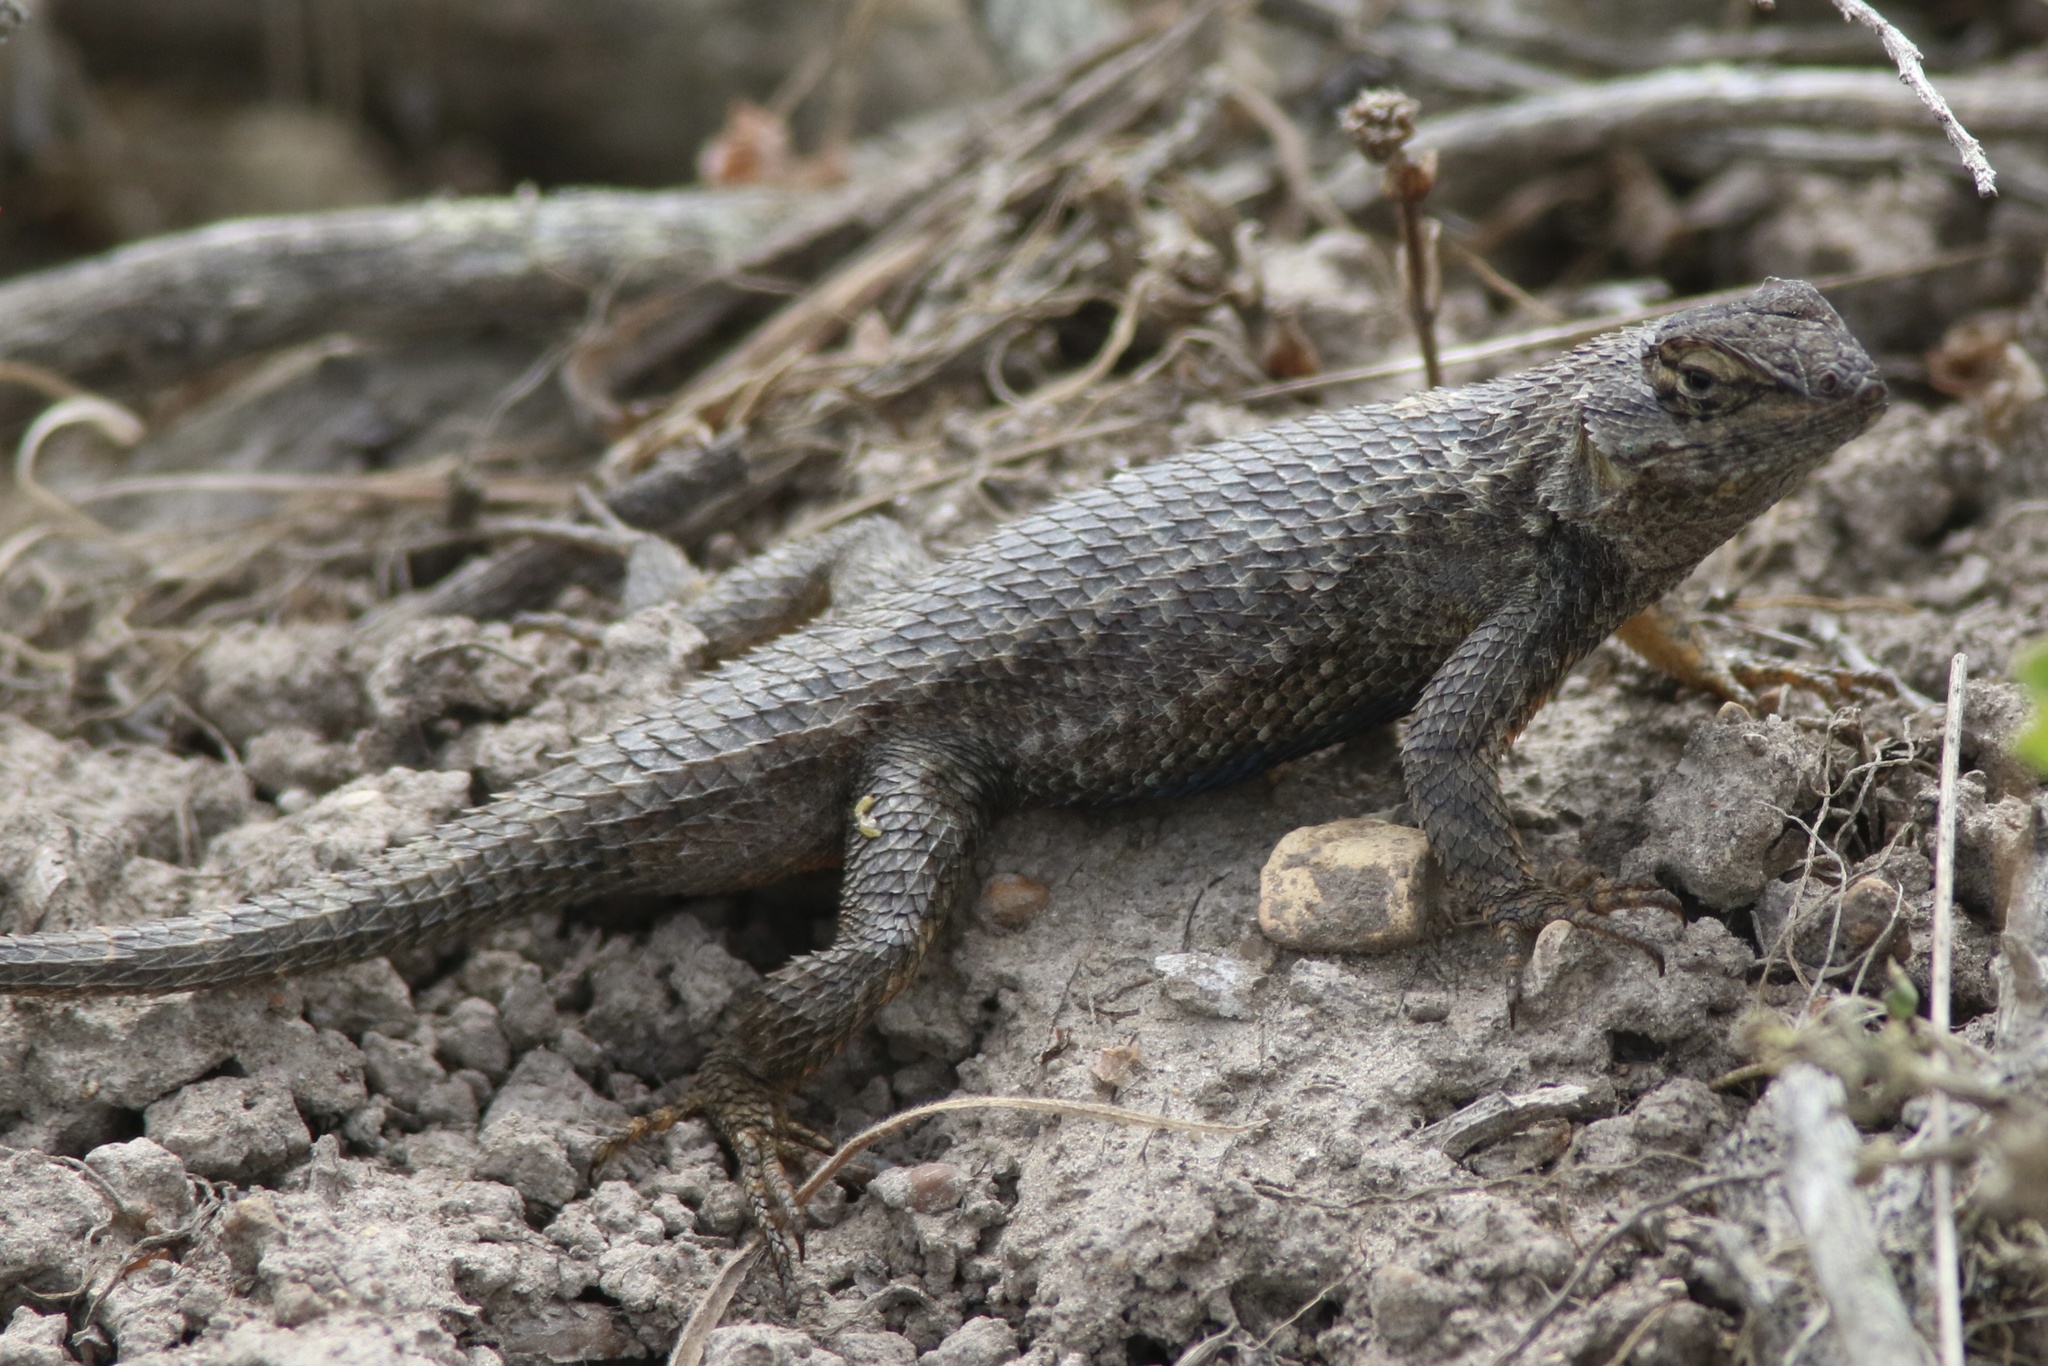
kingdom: Animalia
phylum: Chordata
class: Squamata
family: Phrynosomatidae
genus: Sceloporus
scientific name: Sceloporus occidentalis
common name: Western fence lizard
